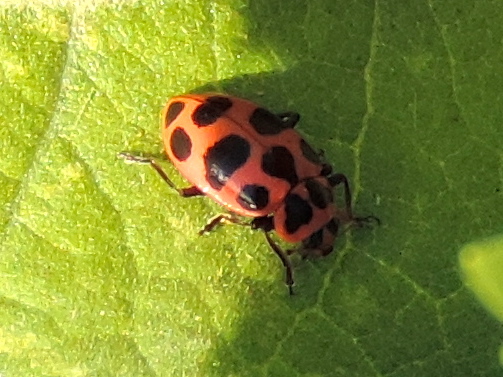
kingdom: Animalia
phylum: Arthropoda
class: Insecta
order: Coleoptera
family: Coccinellidae
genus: Coleomegilla
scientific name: Coleomegilla maculata
